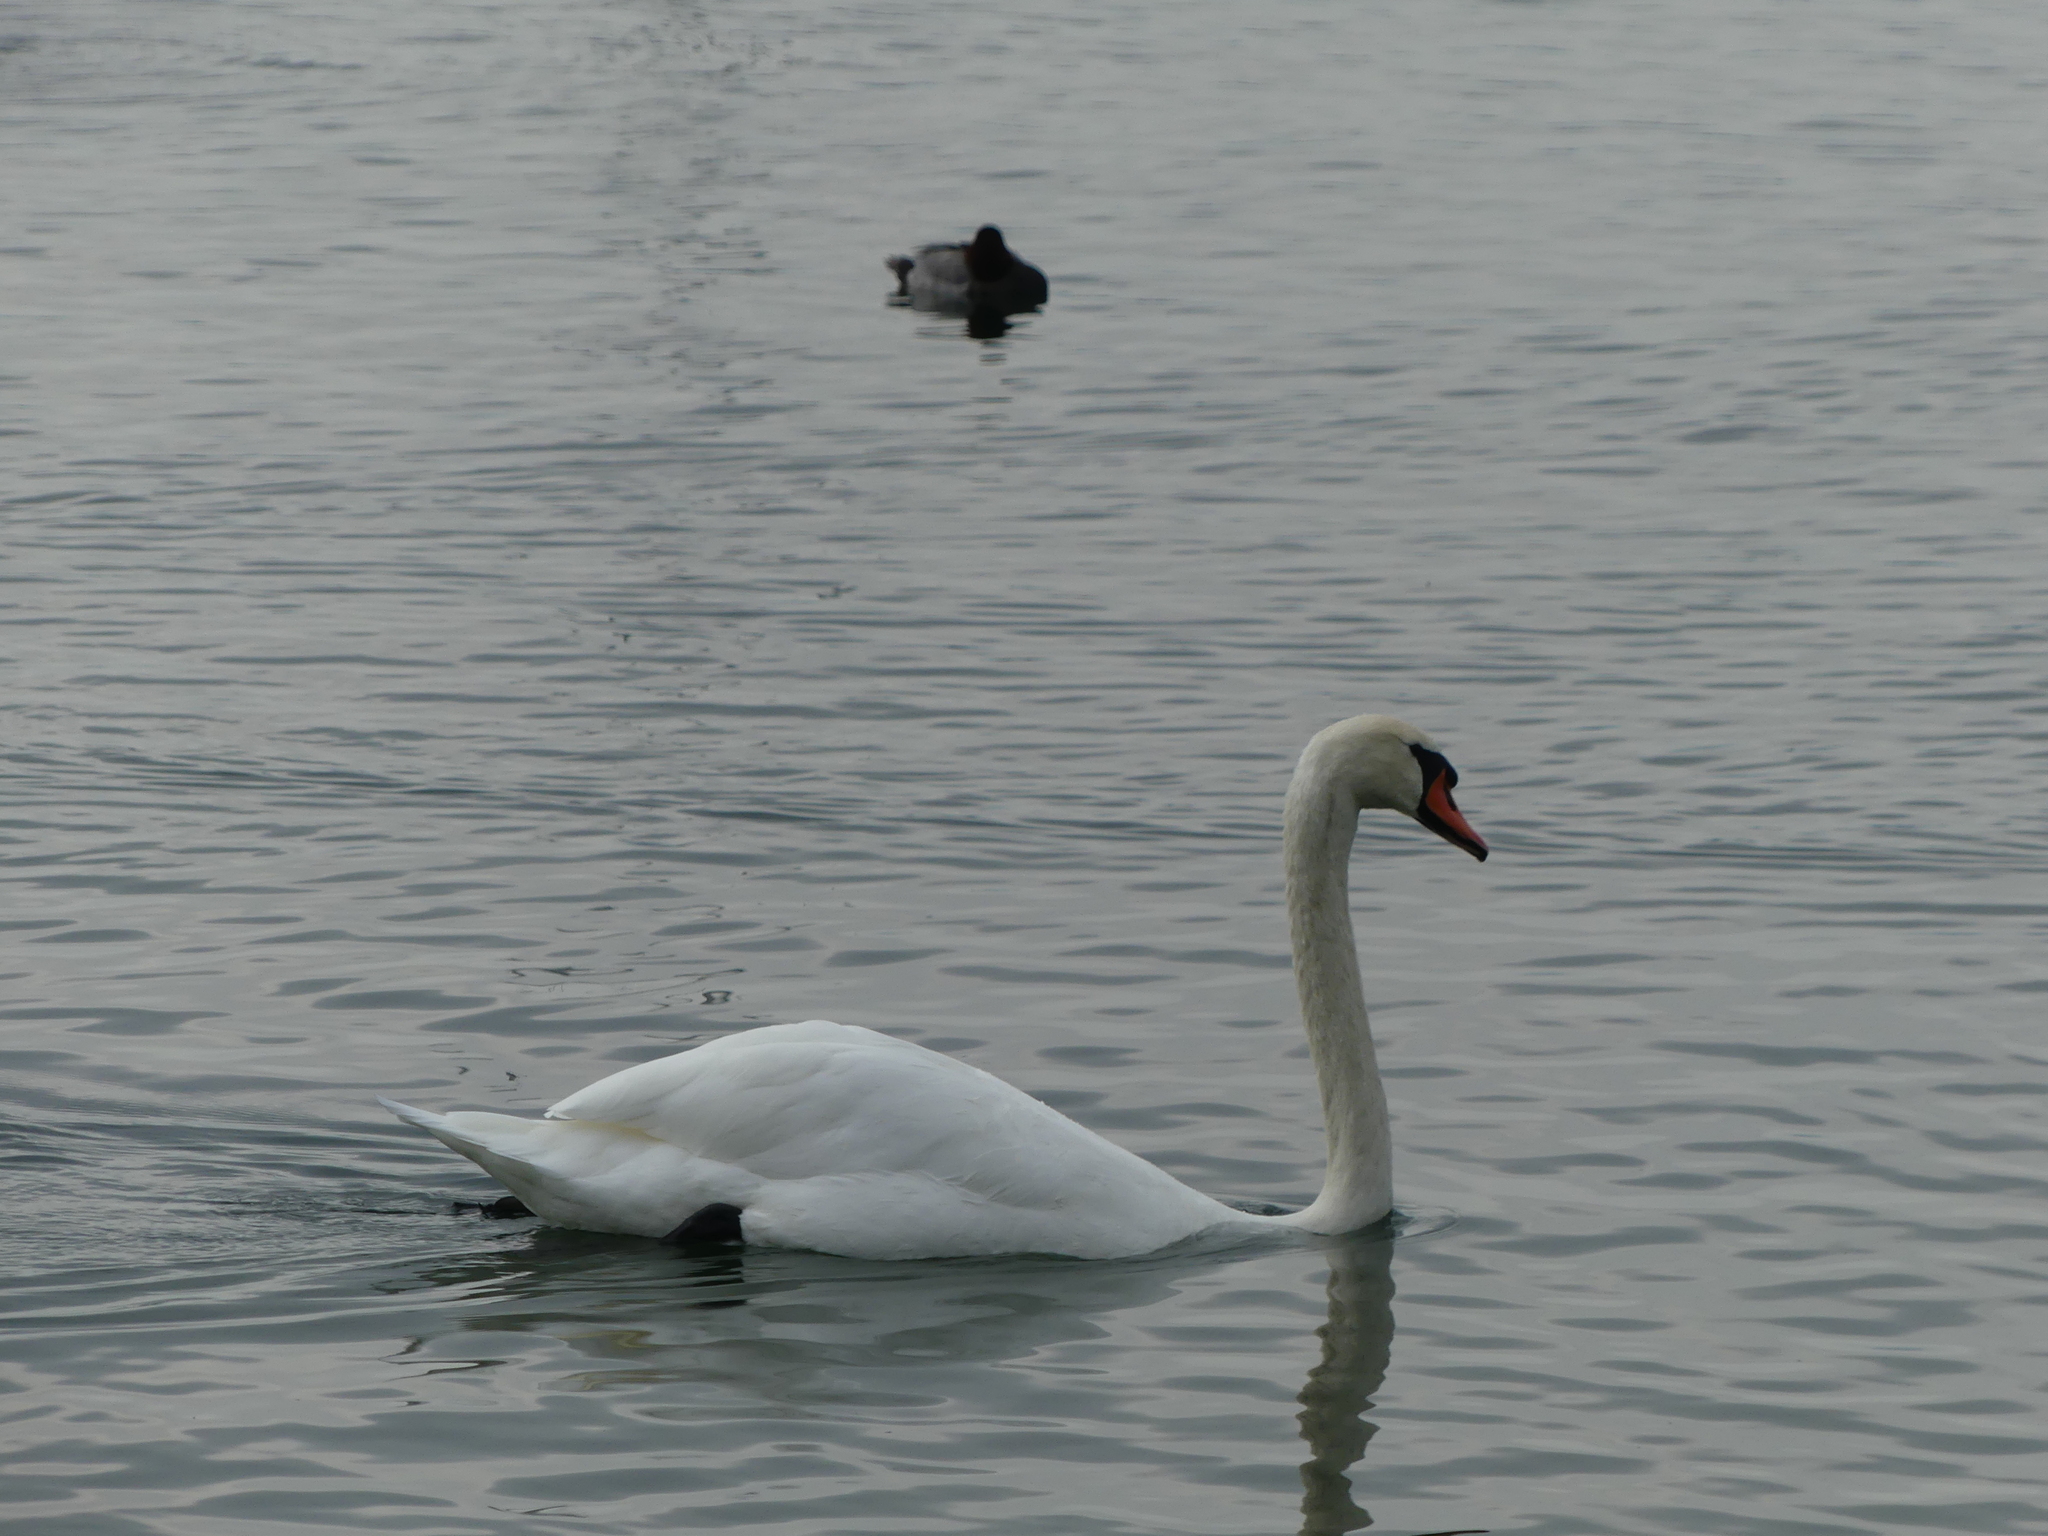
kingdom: Animalia
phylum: Chordata
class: Aves
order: Anseriformes
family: Anatidae
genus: Cygnus
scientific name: Cygnus olor
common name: Mute swan
